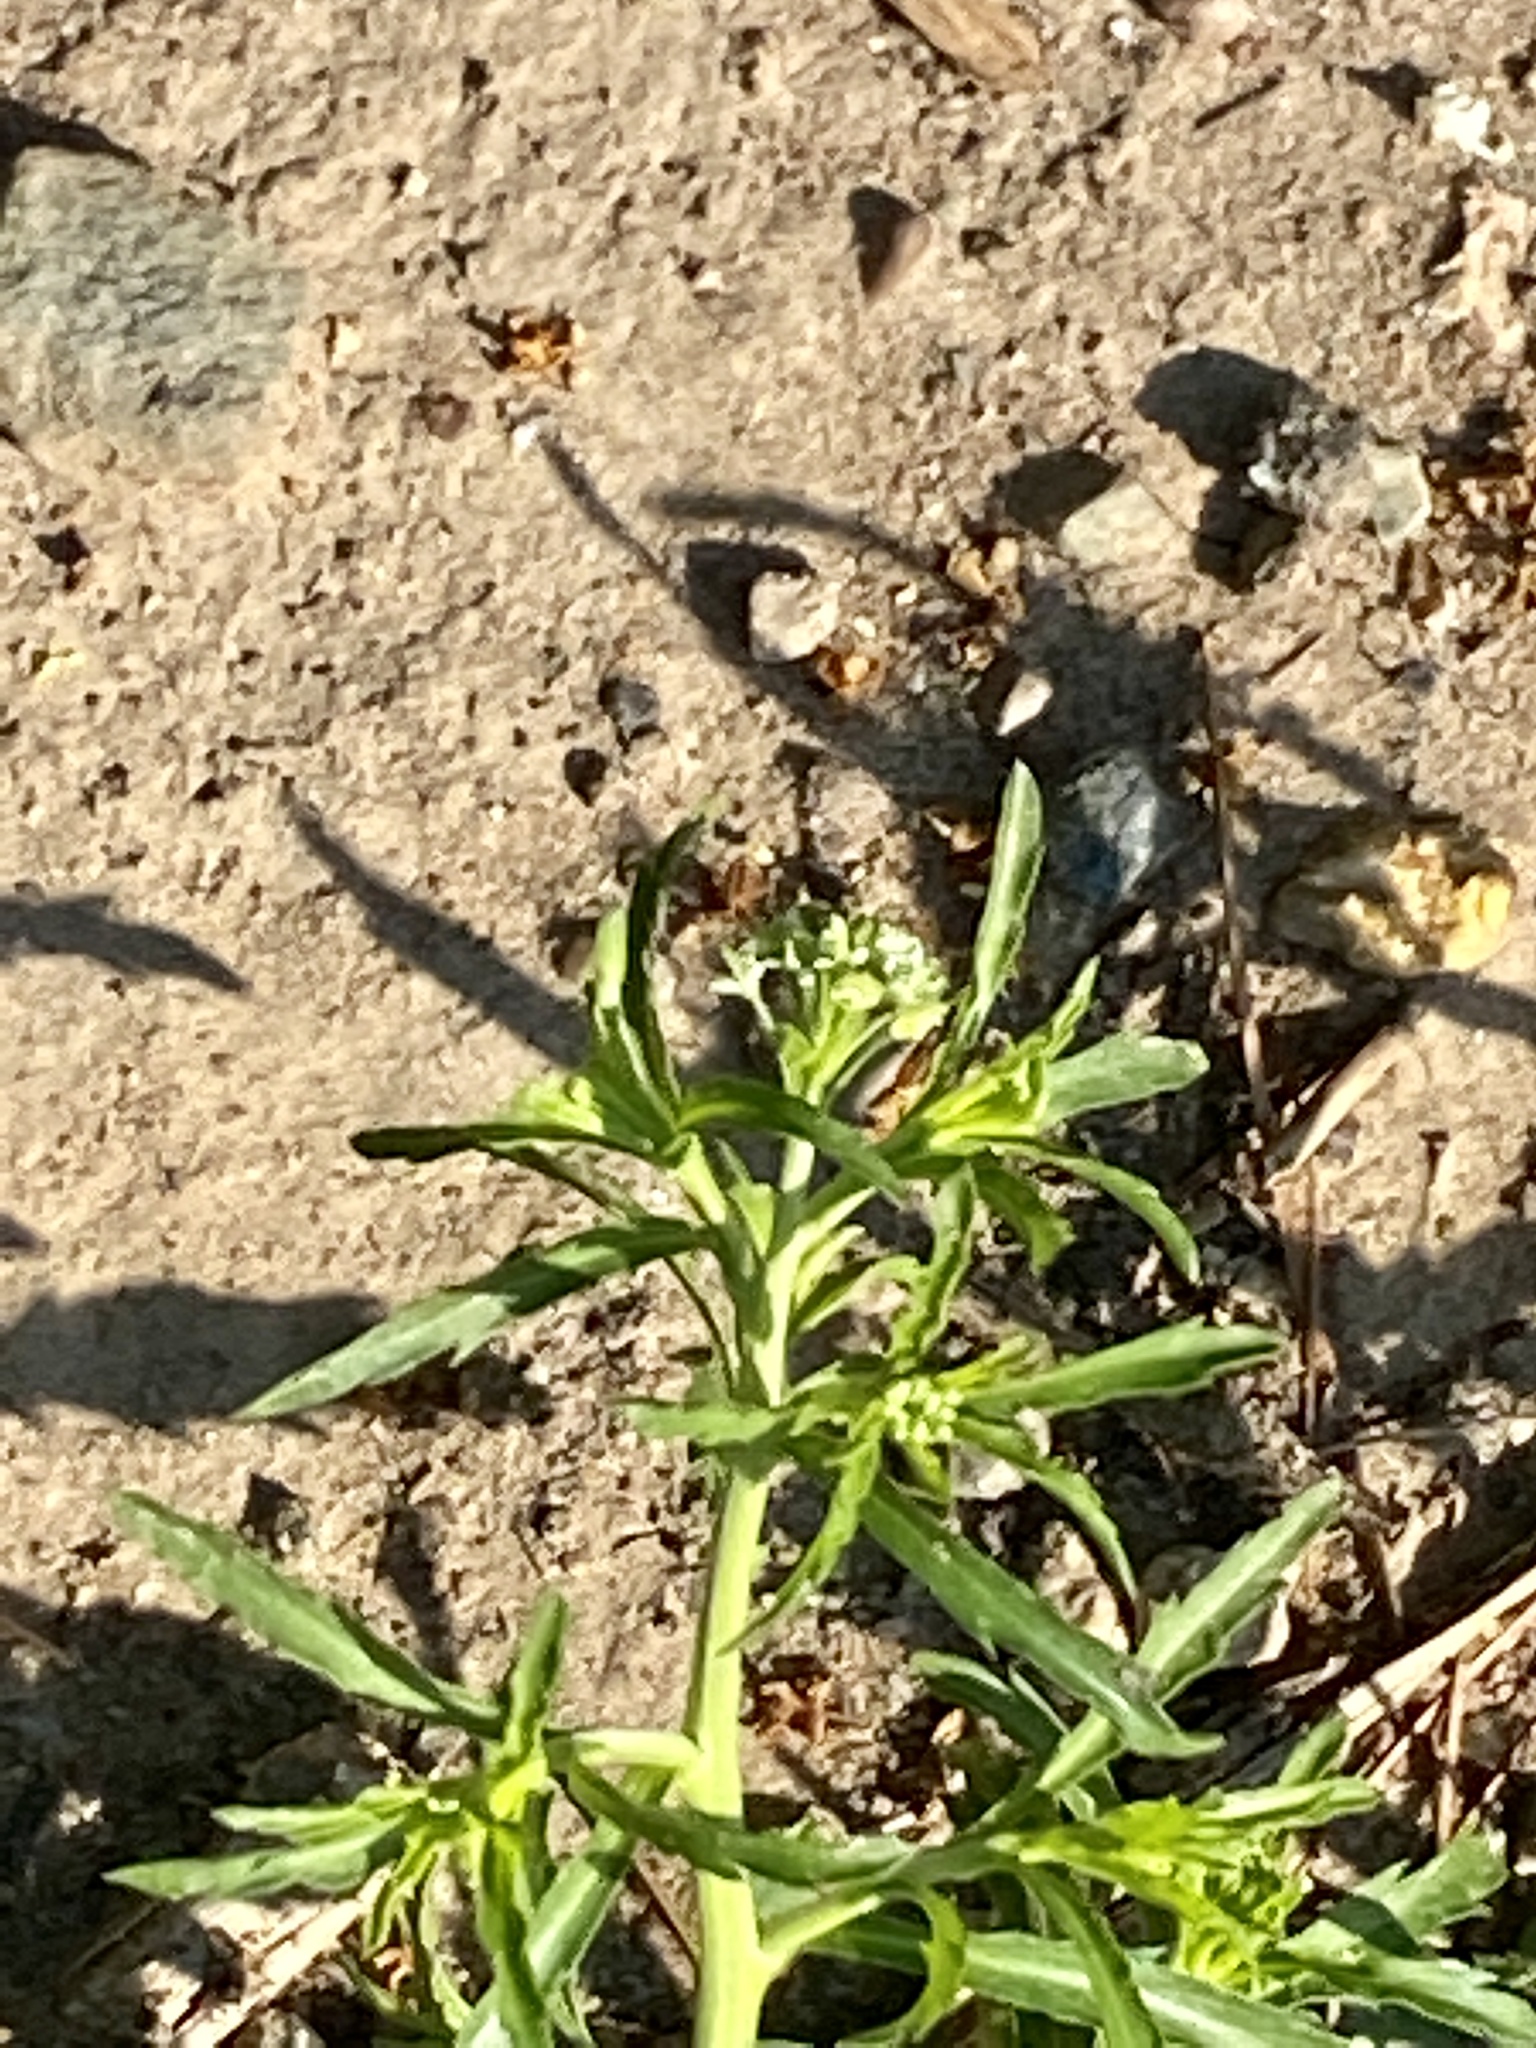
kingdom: Plantae
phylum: Tracheophyta
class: Magnoliopsida
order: Brassicales
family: Brassicaceae
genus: Lepidium
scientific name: Lepidium virginicum
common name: Least pepperwort
